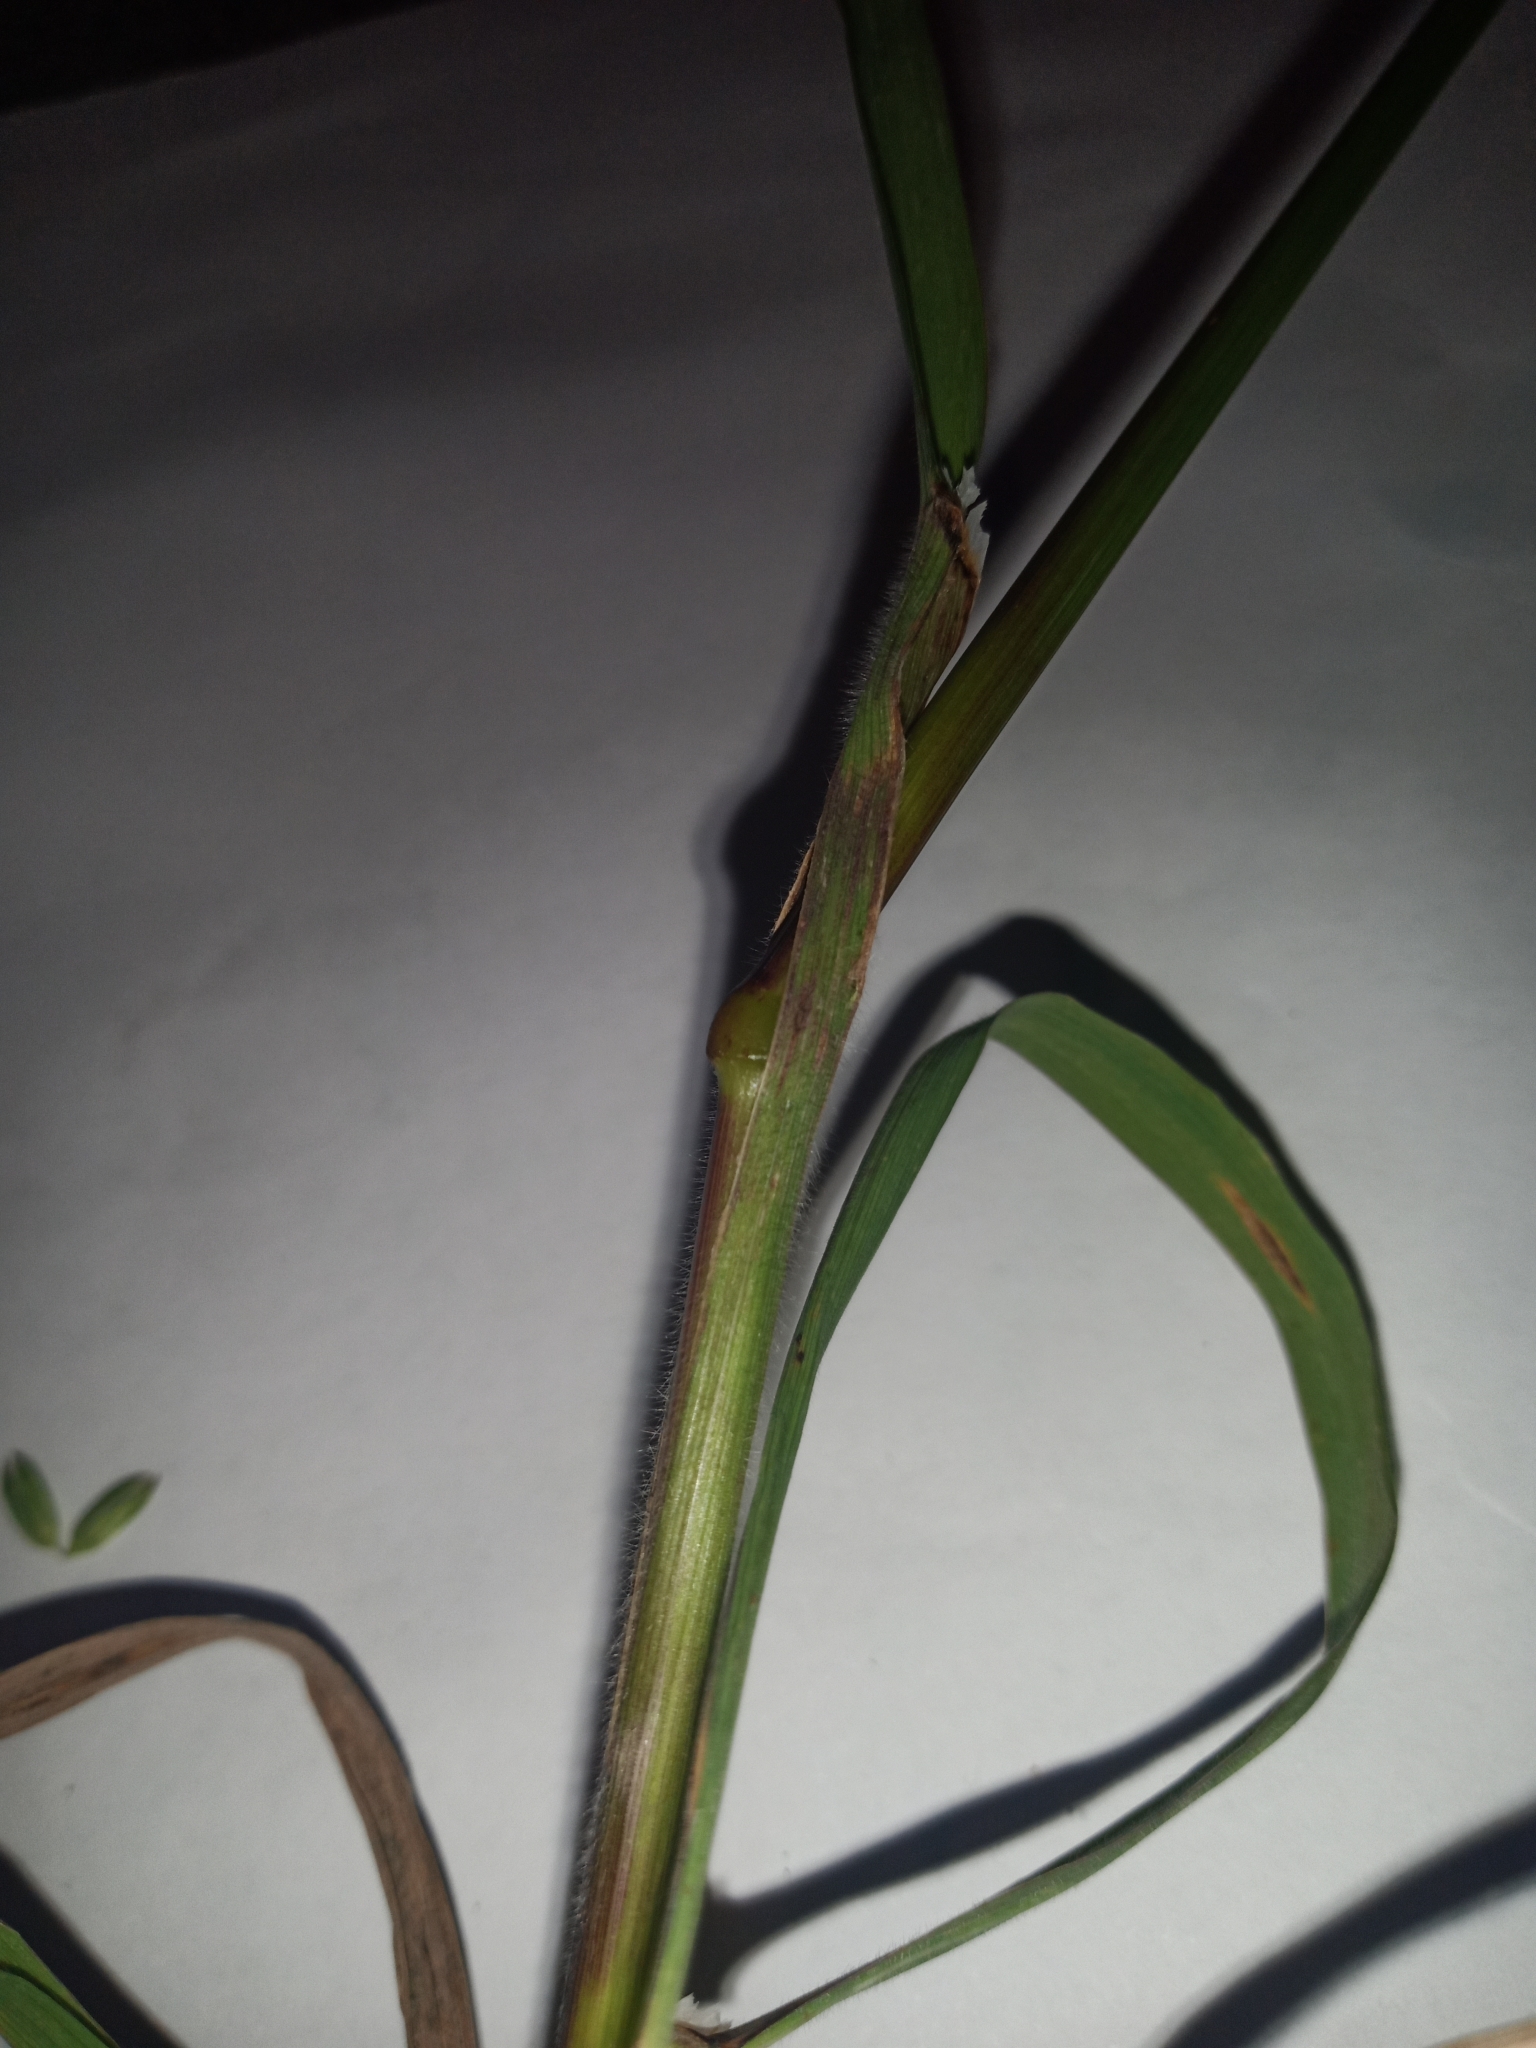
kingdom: Plantae
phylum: Tracheophyta
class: Liliopsida
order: Poales
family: Poaceae
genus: Bromus
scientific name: Bromus catharticus
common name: Rescuegrass
